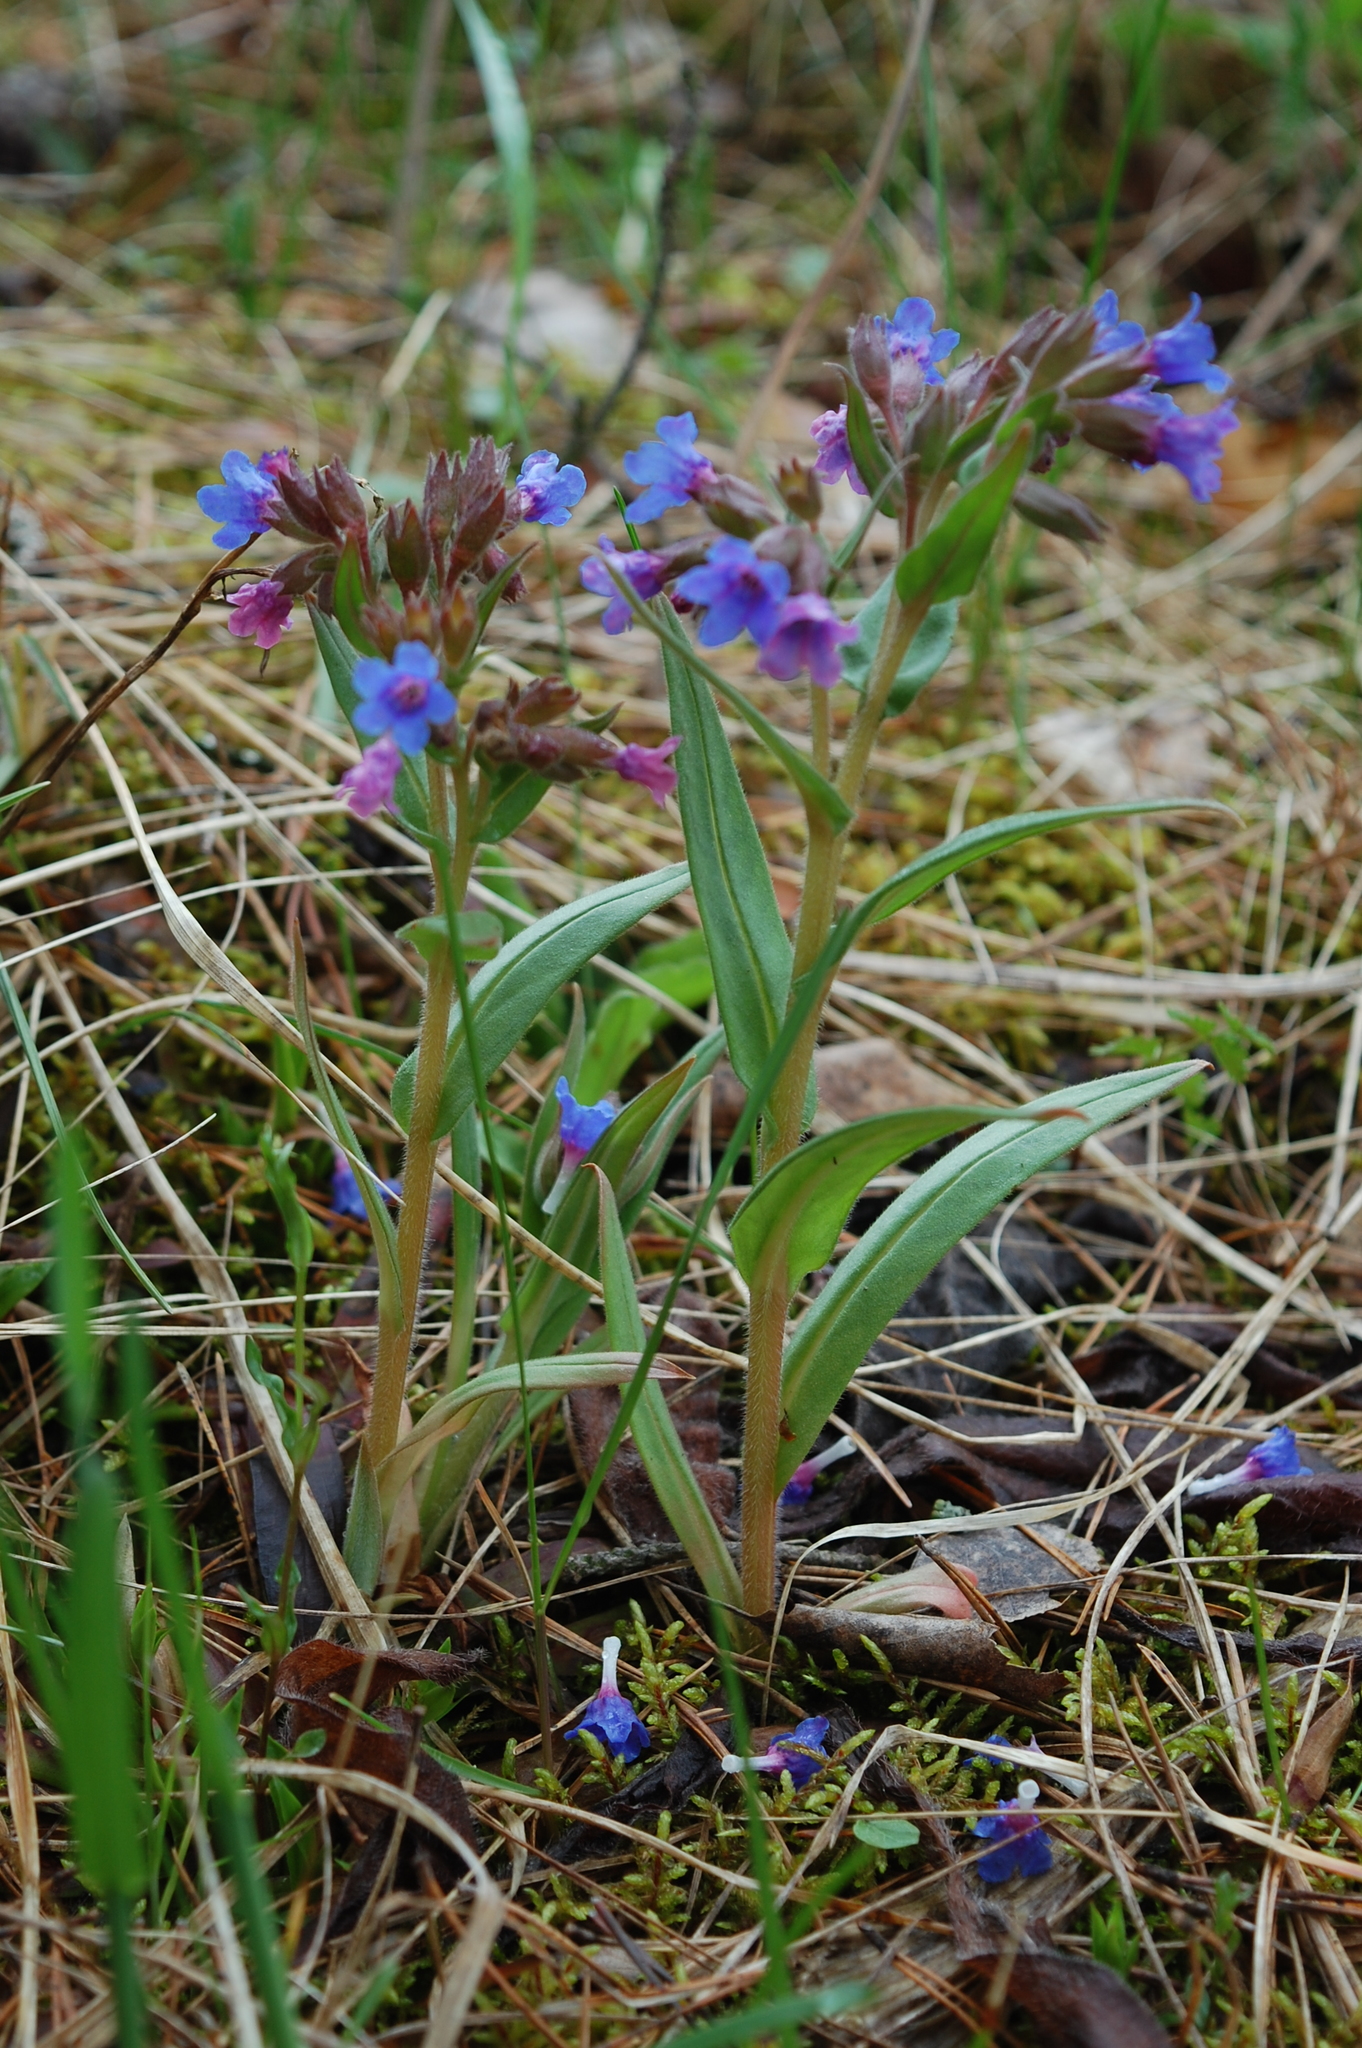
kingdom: Plantae
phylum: Tracheophyta
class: Magnoliopsida
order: Boraginales
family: Boraginaceae
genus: Pulmonaria
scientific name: Pulmonaria angustifolia
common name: Blue cowslip
